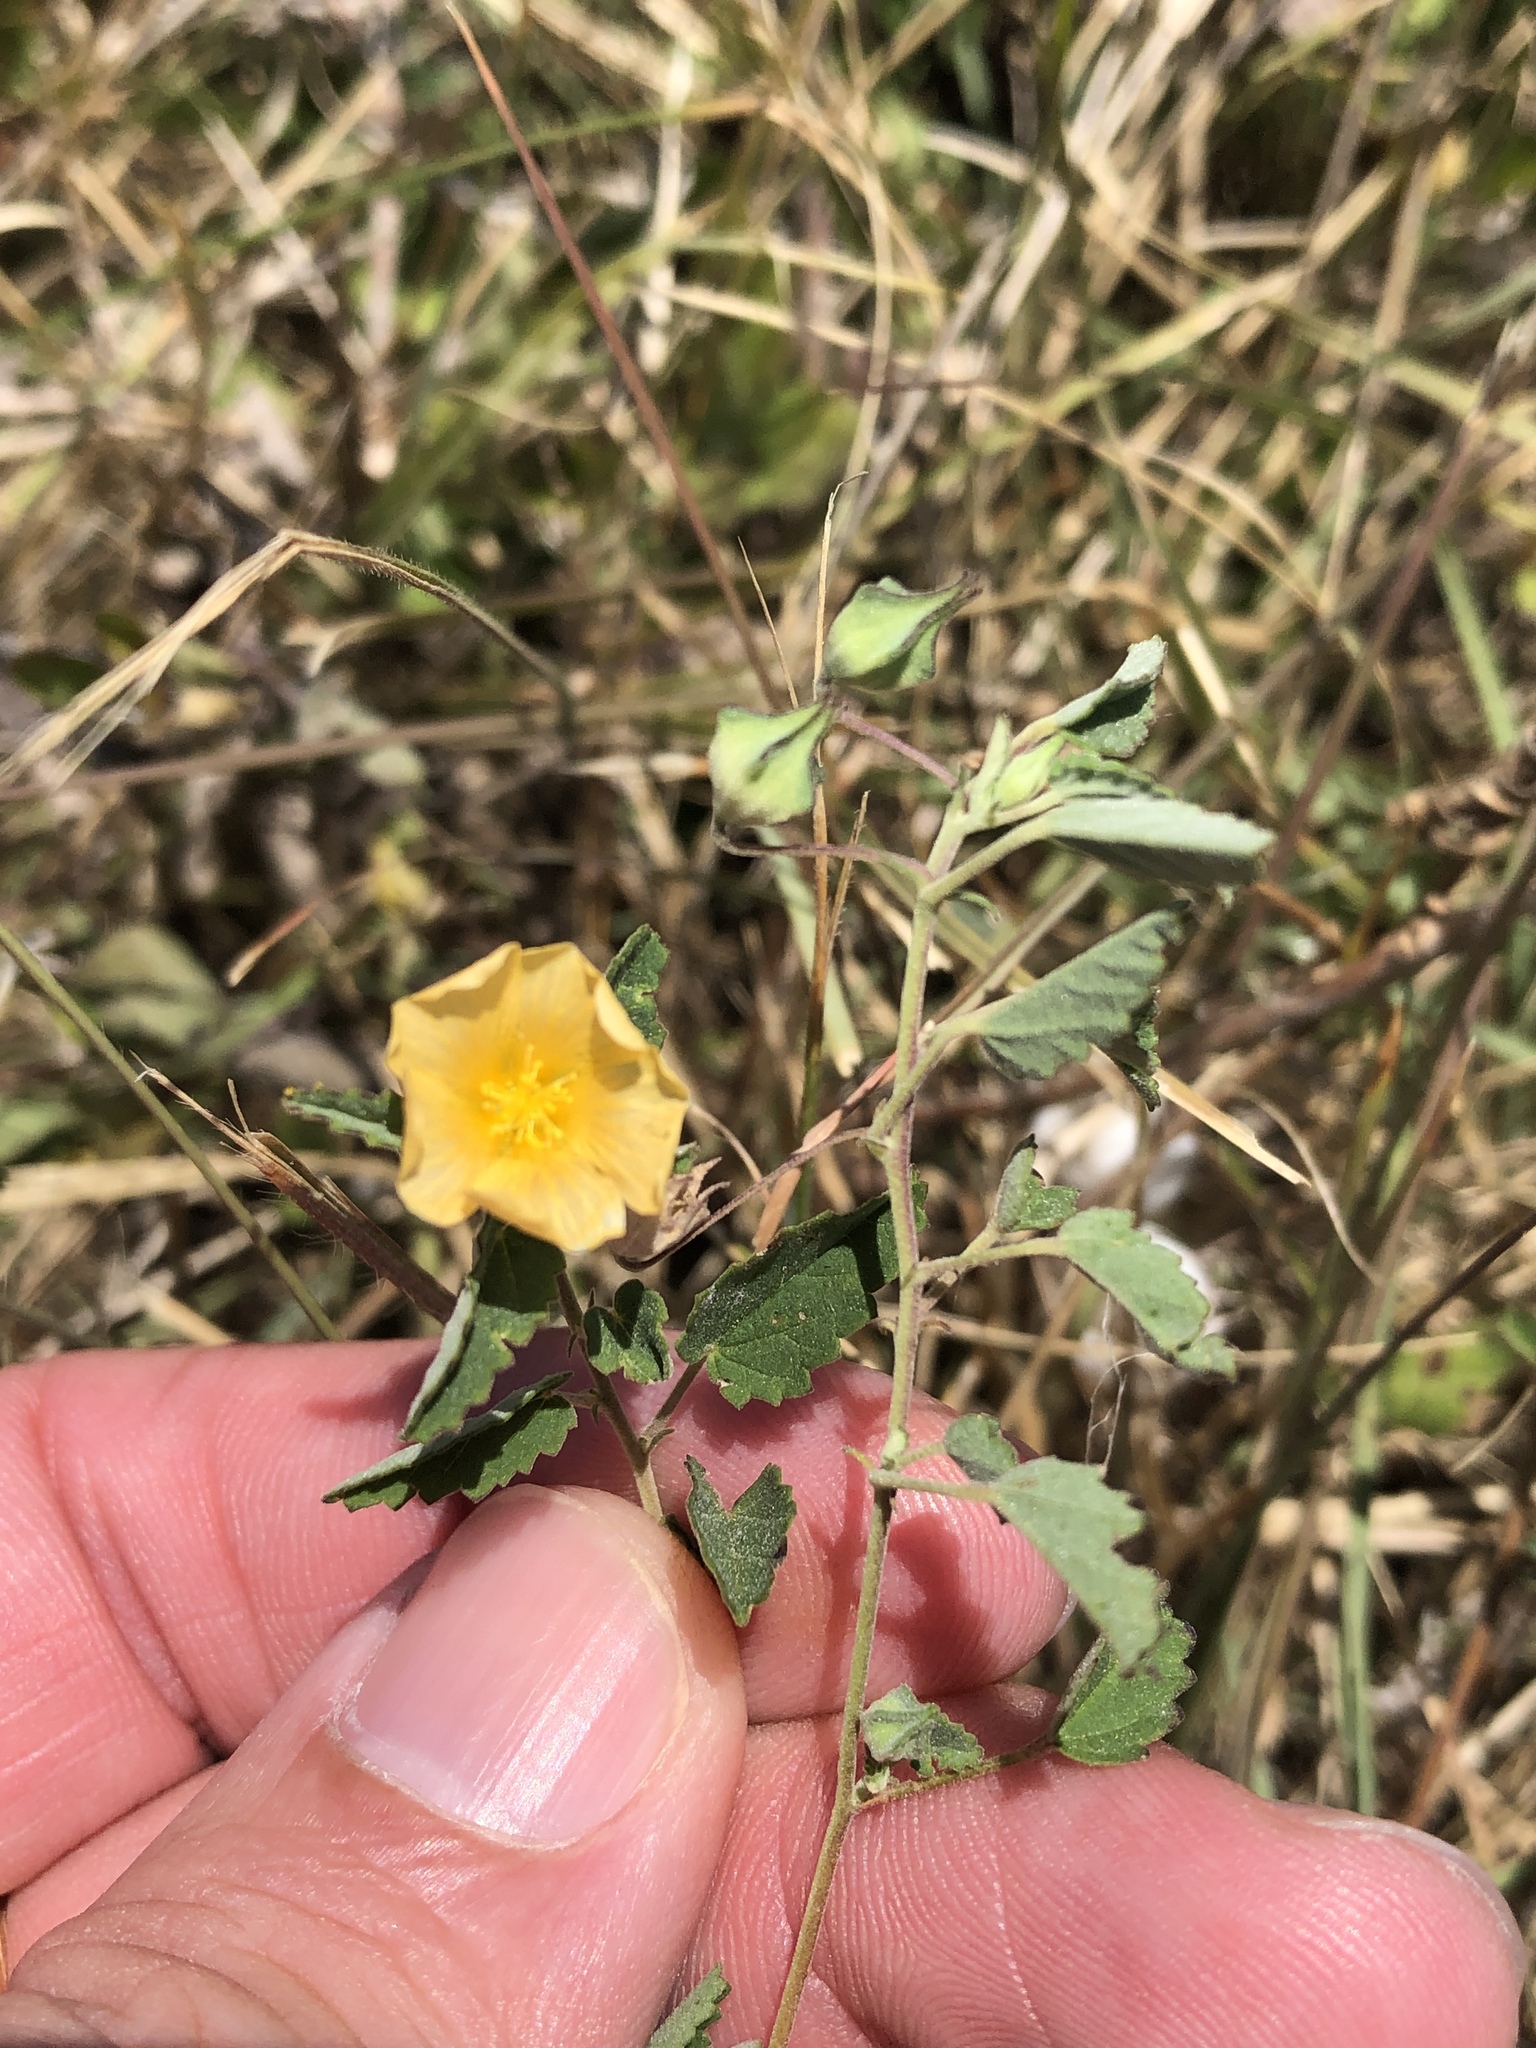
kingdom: Plantae
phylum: Tracheophyta
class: Magnoliopsida
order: Malvales
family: Malvaceae
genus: Sida
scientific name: Sida abutilifolia
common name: Spreading fanpetals
